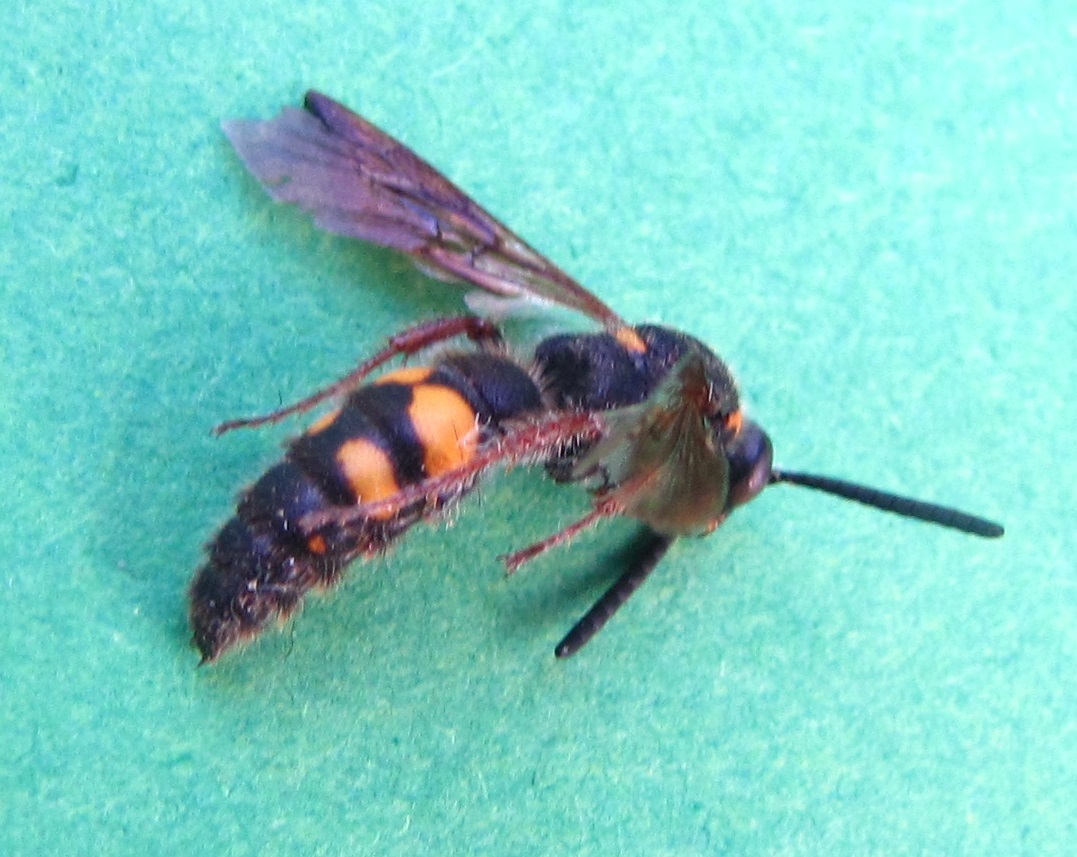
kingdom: Animalia
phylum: Arthropoda
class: Insecta
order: Hymenoptera
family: Scoliidae
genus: Scolia
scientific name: Scolia nobilitata
